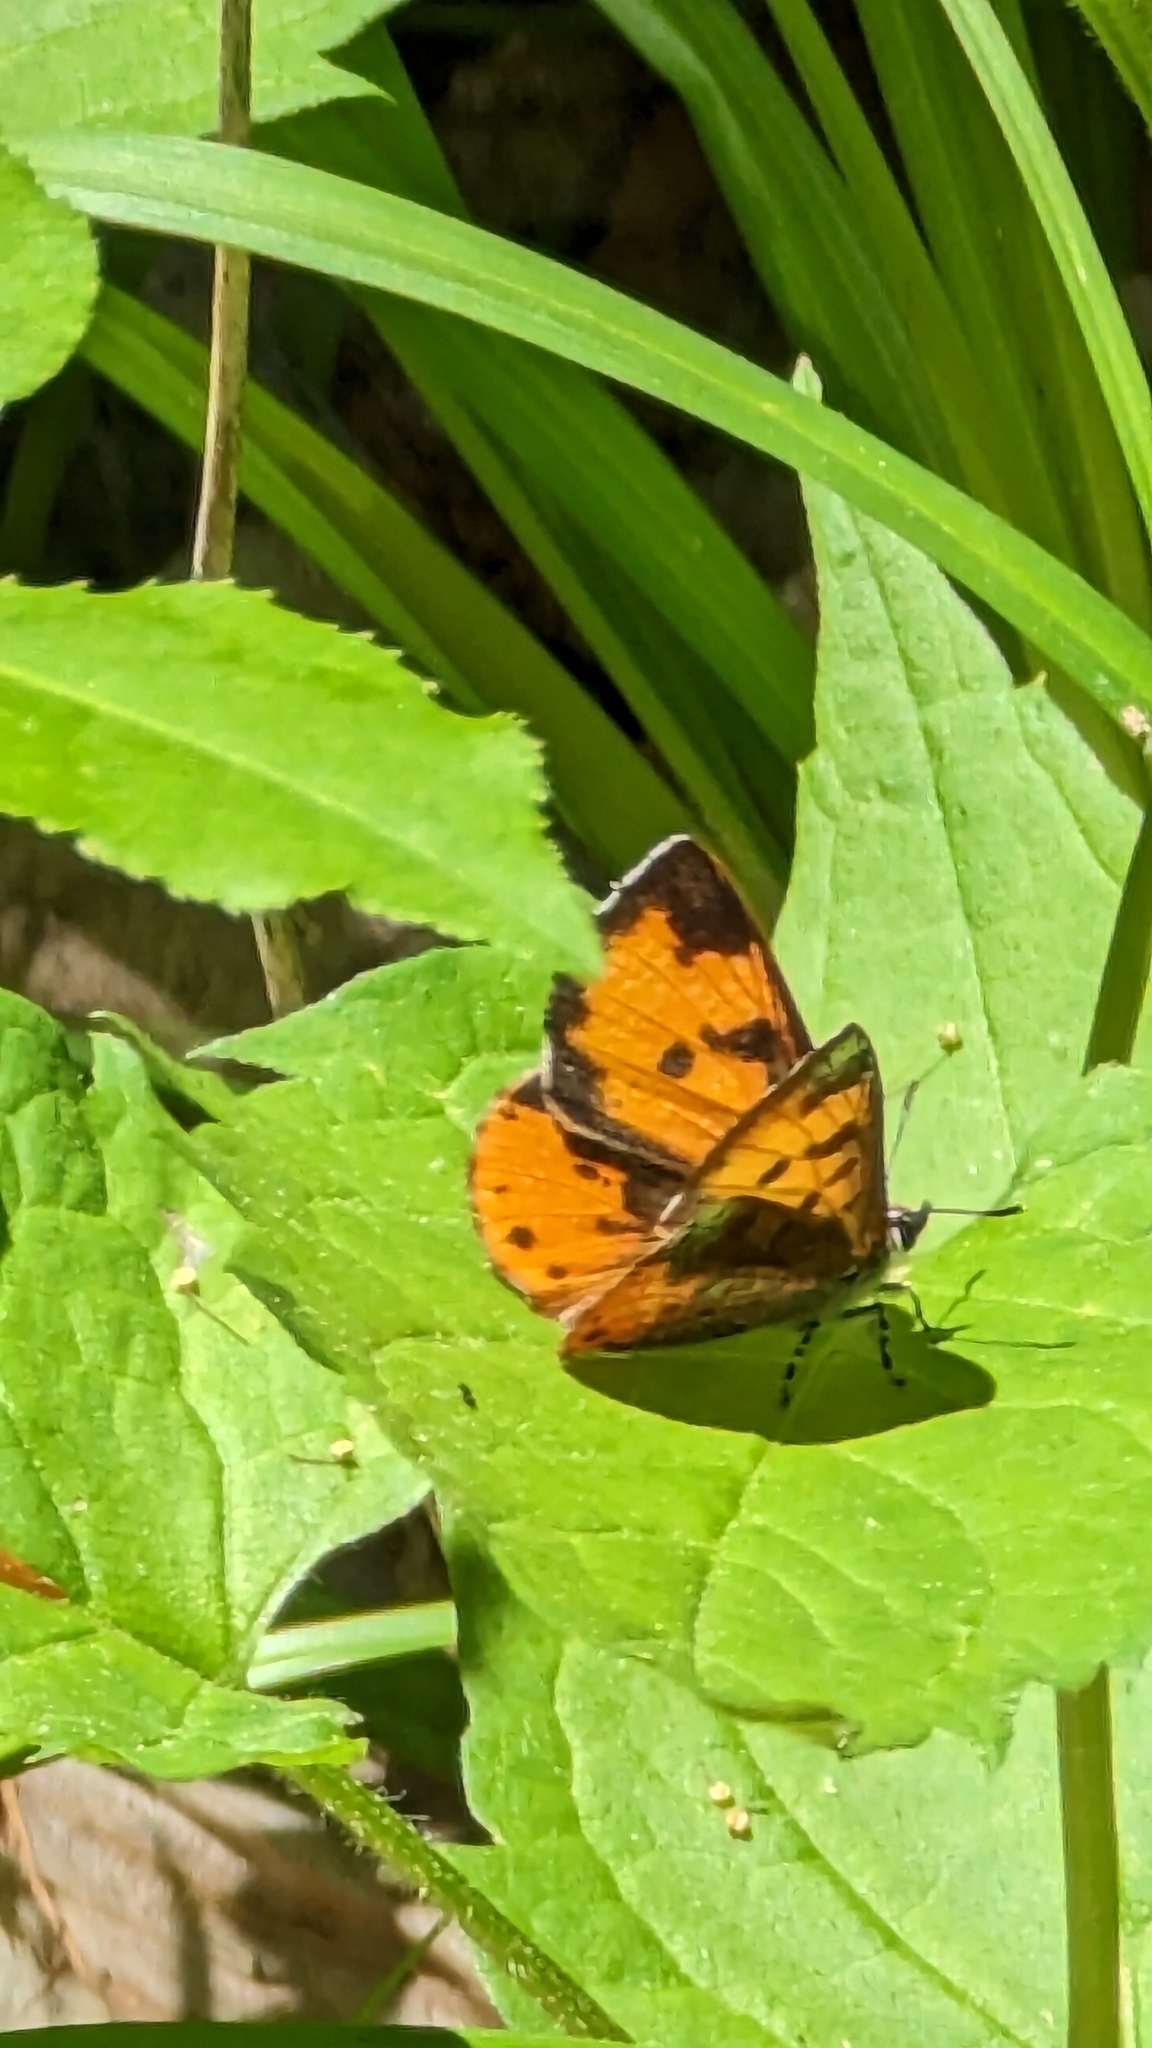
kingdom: Animalia
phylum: Arthropoda
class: Insecta
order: Lepidoptera
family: Lycaenidae
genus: Feniseca
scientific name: Feniseca tarquinius
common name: Harvester
